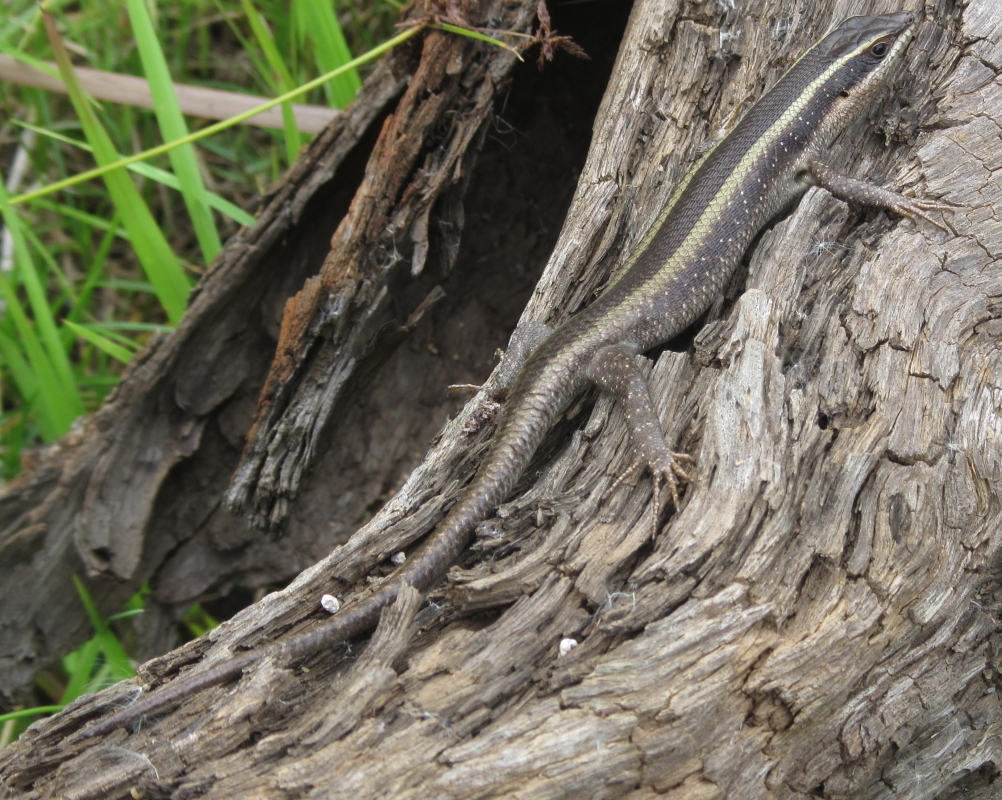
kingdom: Animalia
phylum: Chordata
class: Squamata
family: Scincidae
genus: Trachylepis
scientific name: Trachylepis striata
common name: African striped mabuya
